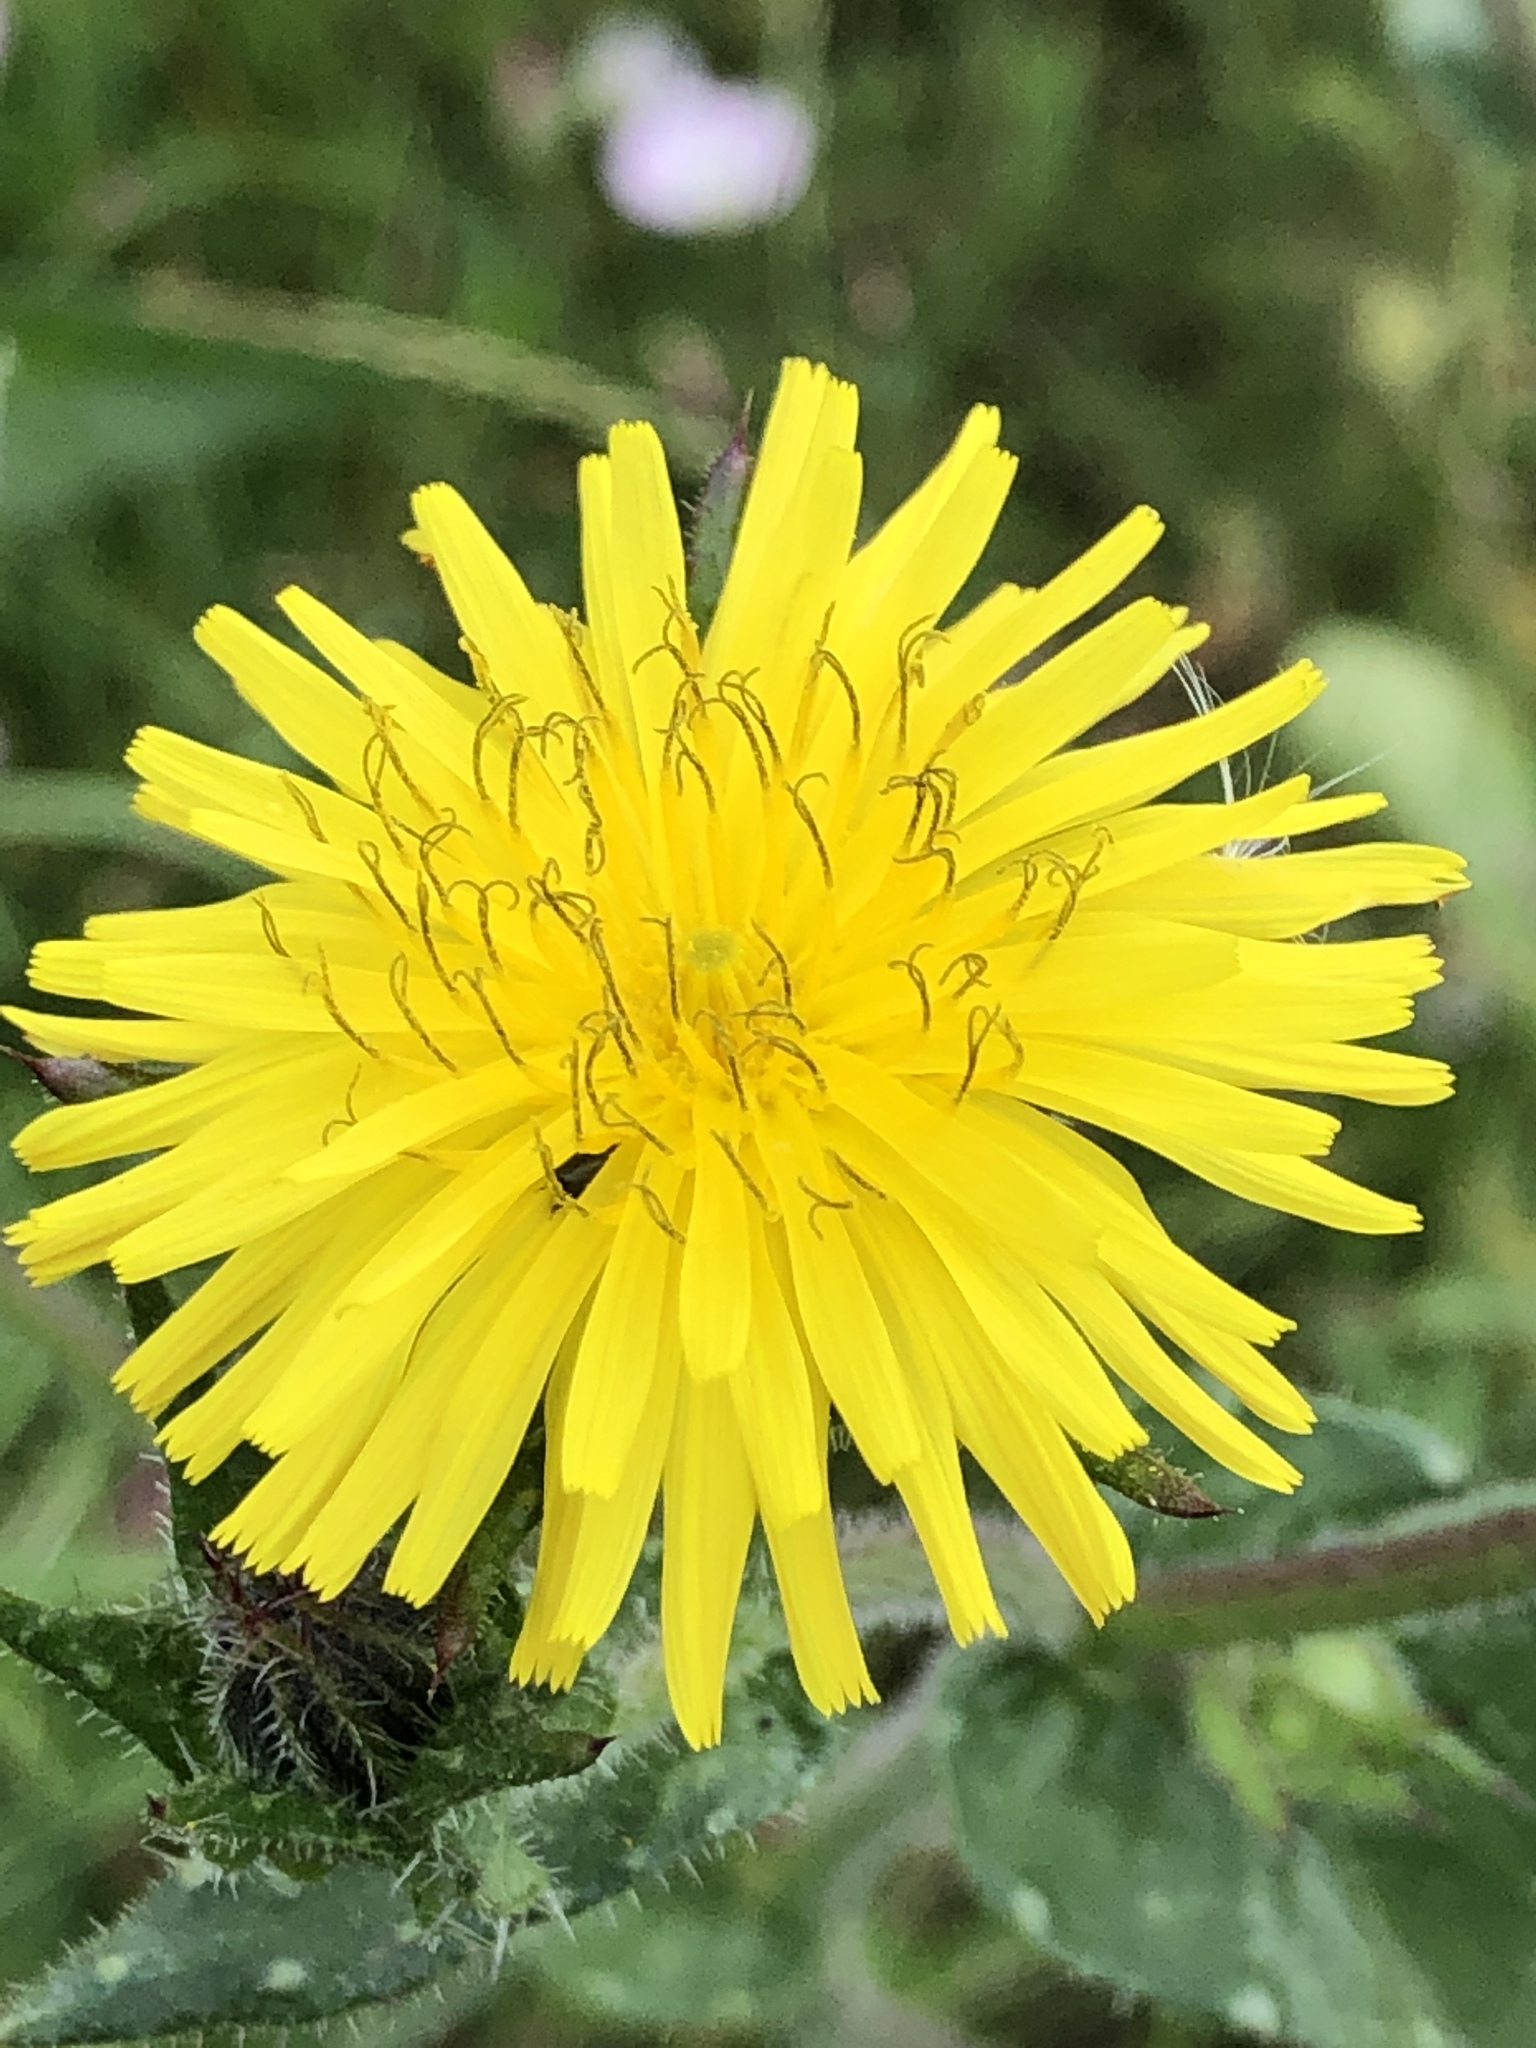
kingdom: Plantae
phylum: Tracheophyta
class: Magnoliopsida
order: Asterales
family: Asteraceae
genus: Helminthotheca
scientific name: Helminthotheca echioides
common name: Ox-tongue
